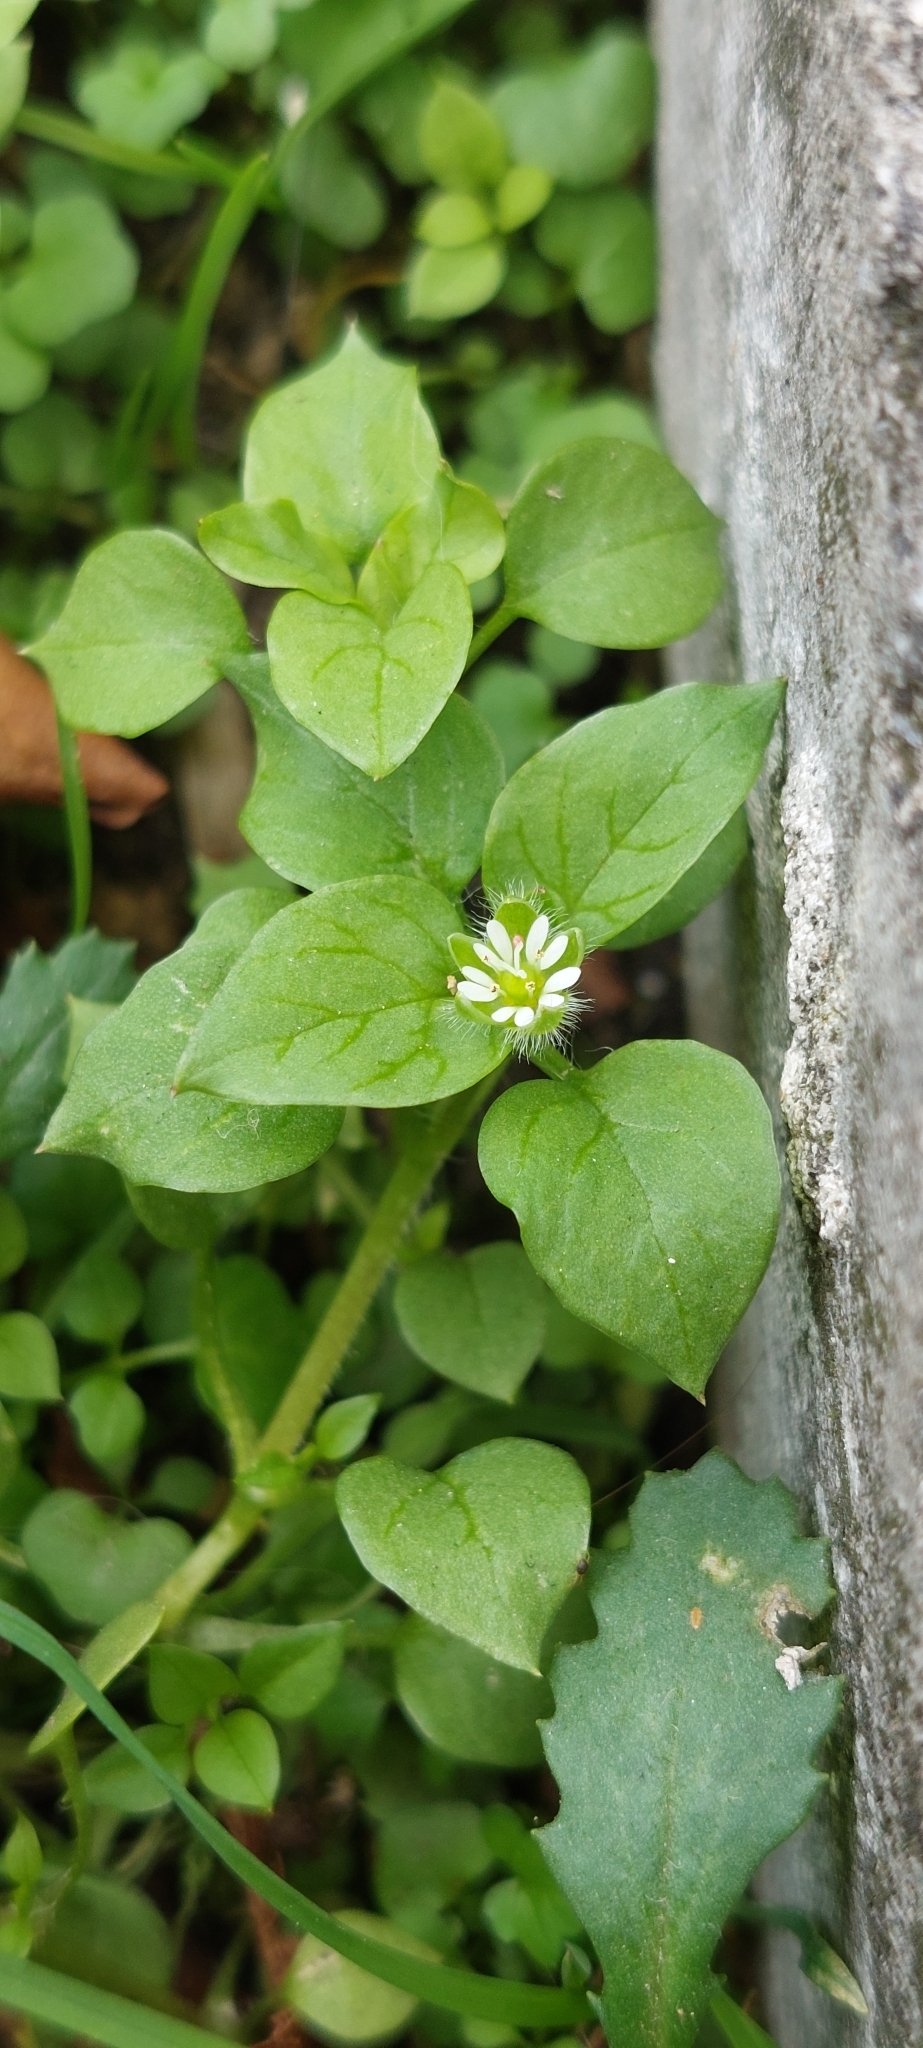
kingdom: Plantae
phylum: Tracheophyta
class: Magnoliopsida
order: Caryophyllales
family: Caryophyllaceae
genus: Stellaria
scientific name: Stellaria media
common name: Common chickweed
